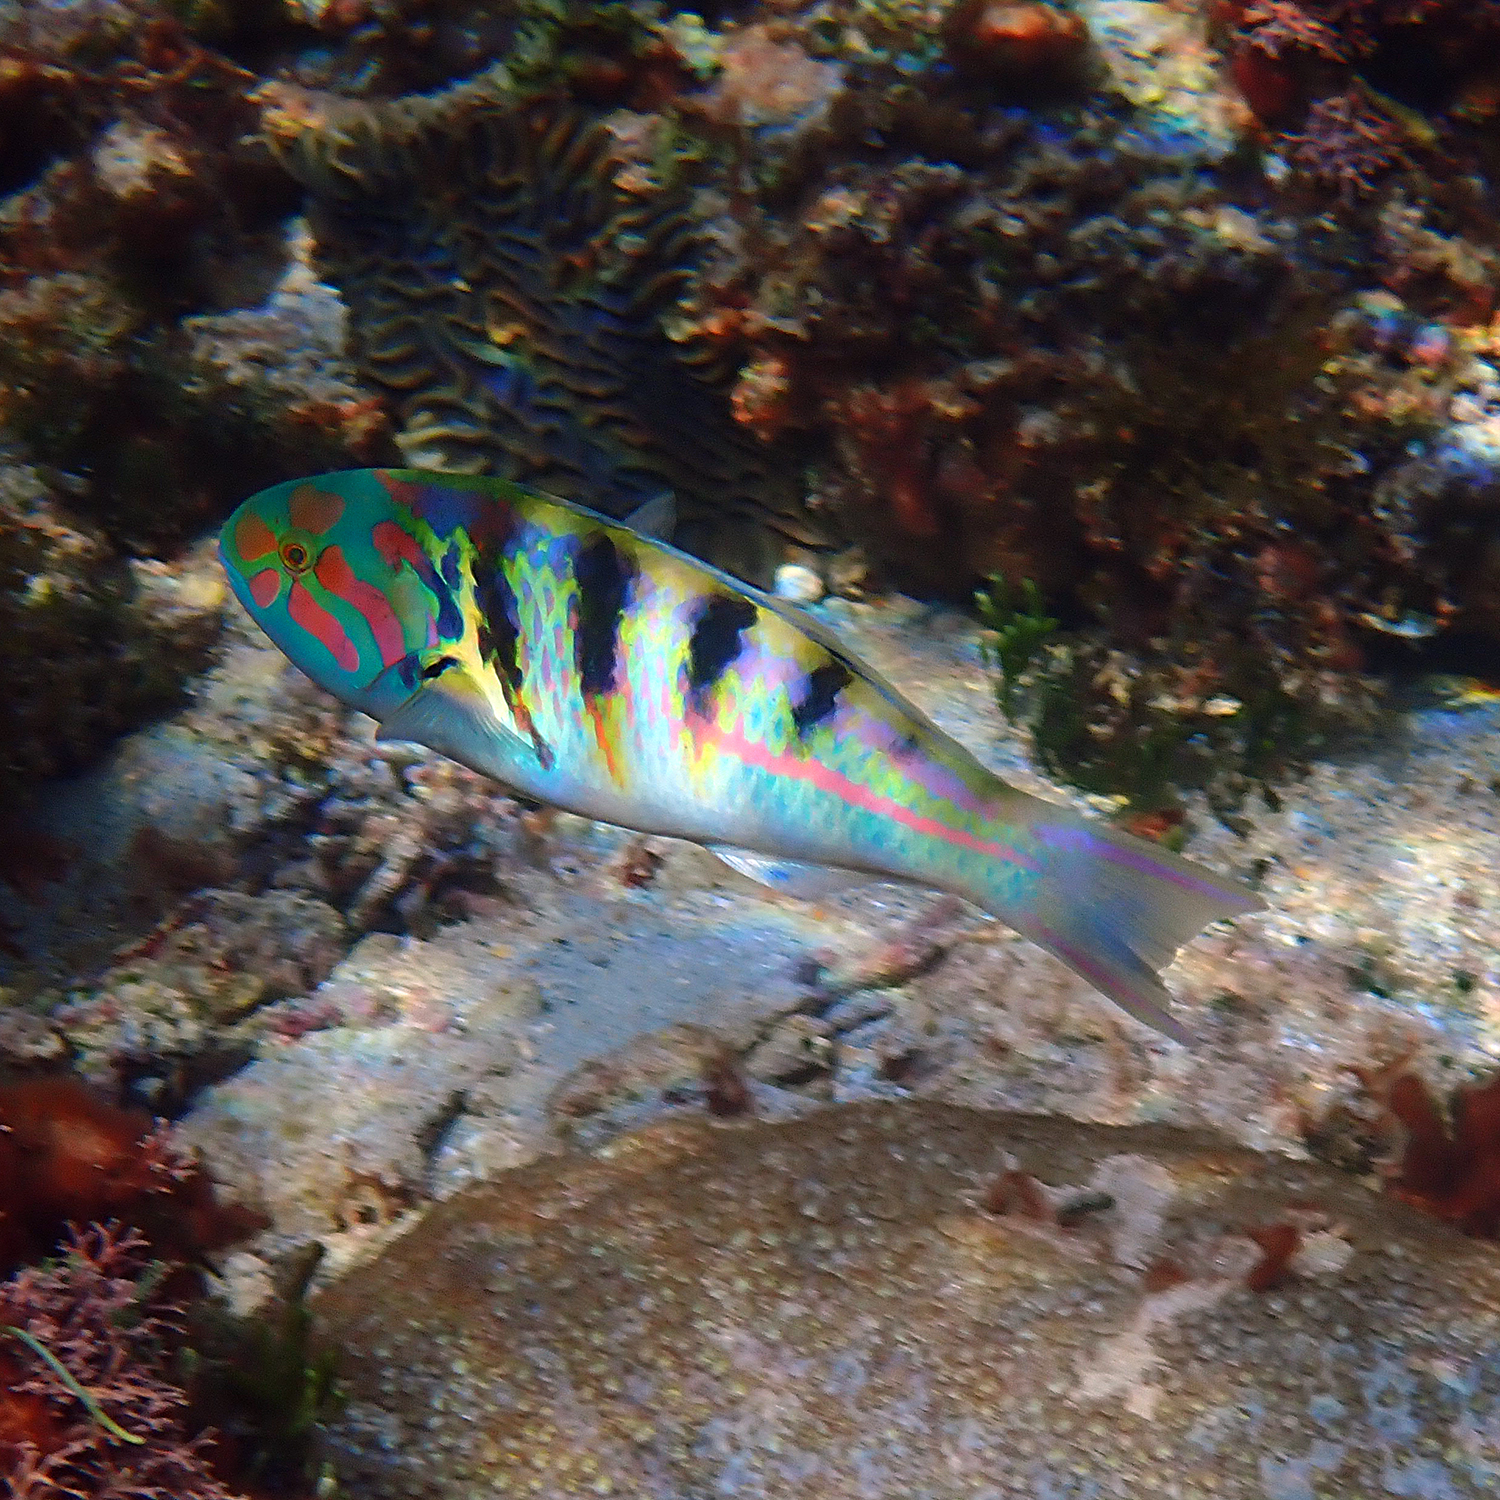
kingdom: Animalia
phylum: Chordata
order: Perciformes
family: Labridae
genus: Thalassoma
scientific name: Thalassoma hardwicke
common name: Sixbar wrasse
